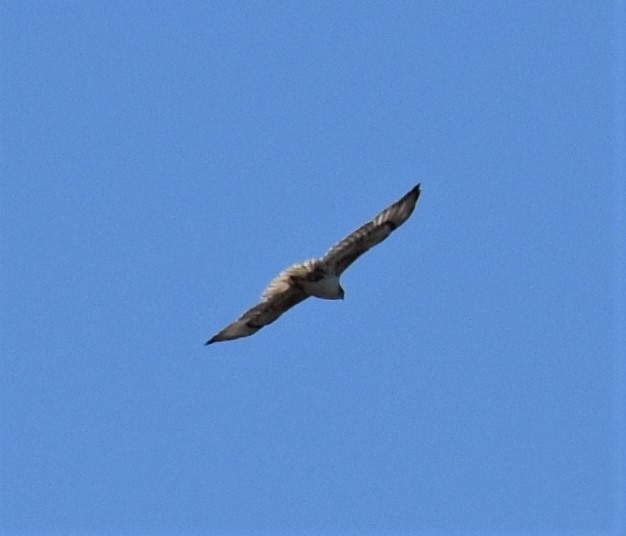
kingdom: Animalia
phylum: Chordata
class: Aves
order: Accipitriformes
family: Accipitridae
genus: Buteo
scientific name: Buteo regalis
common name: Ferruginous hawk
